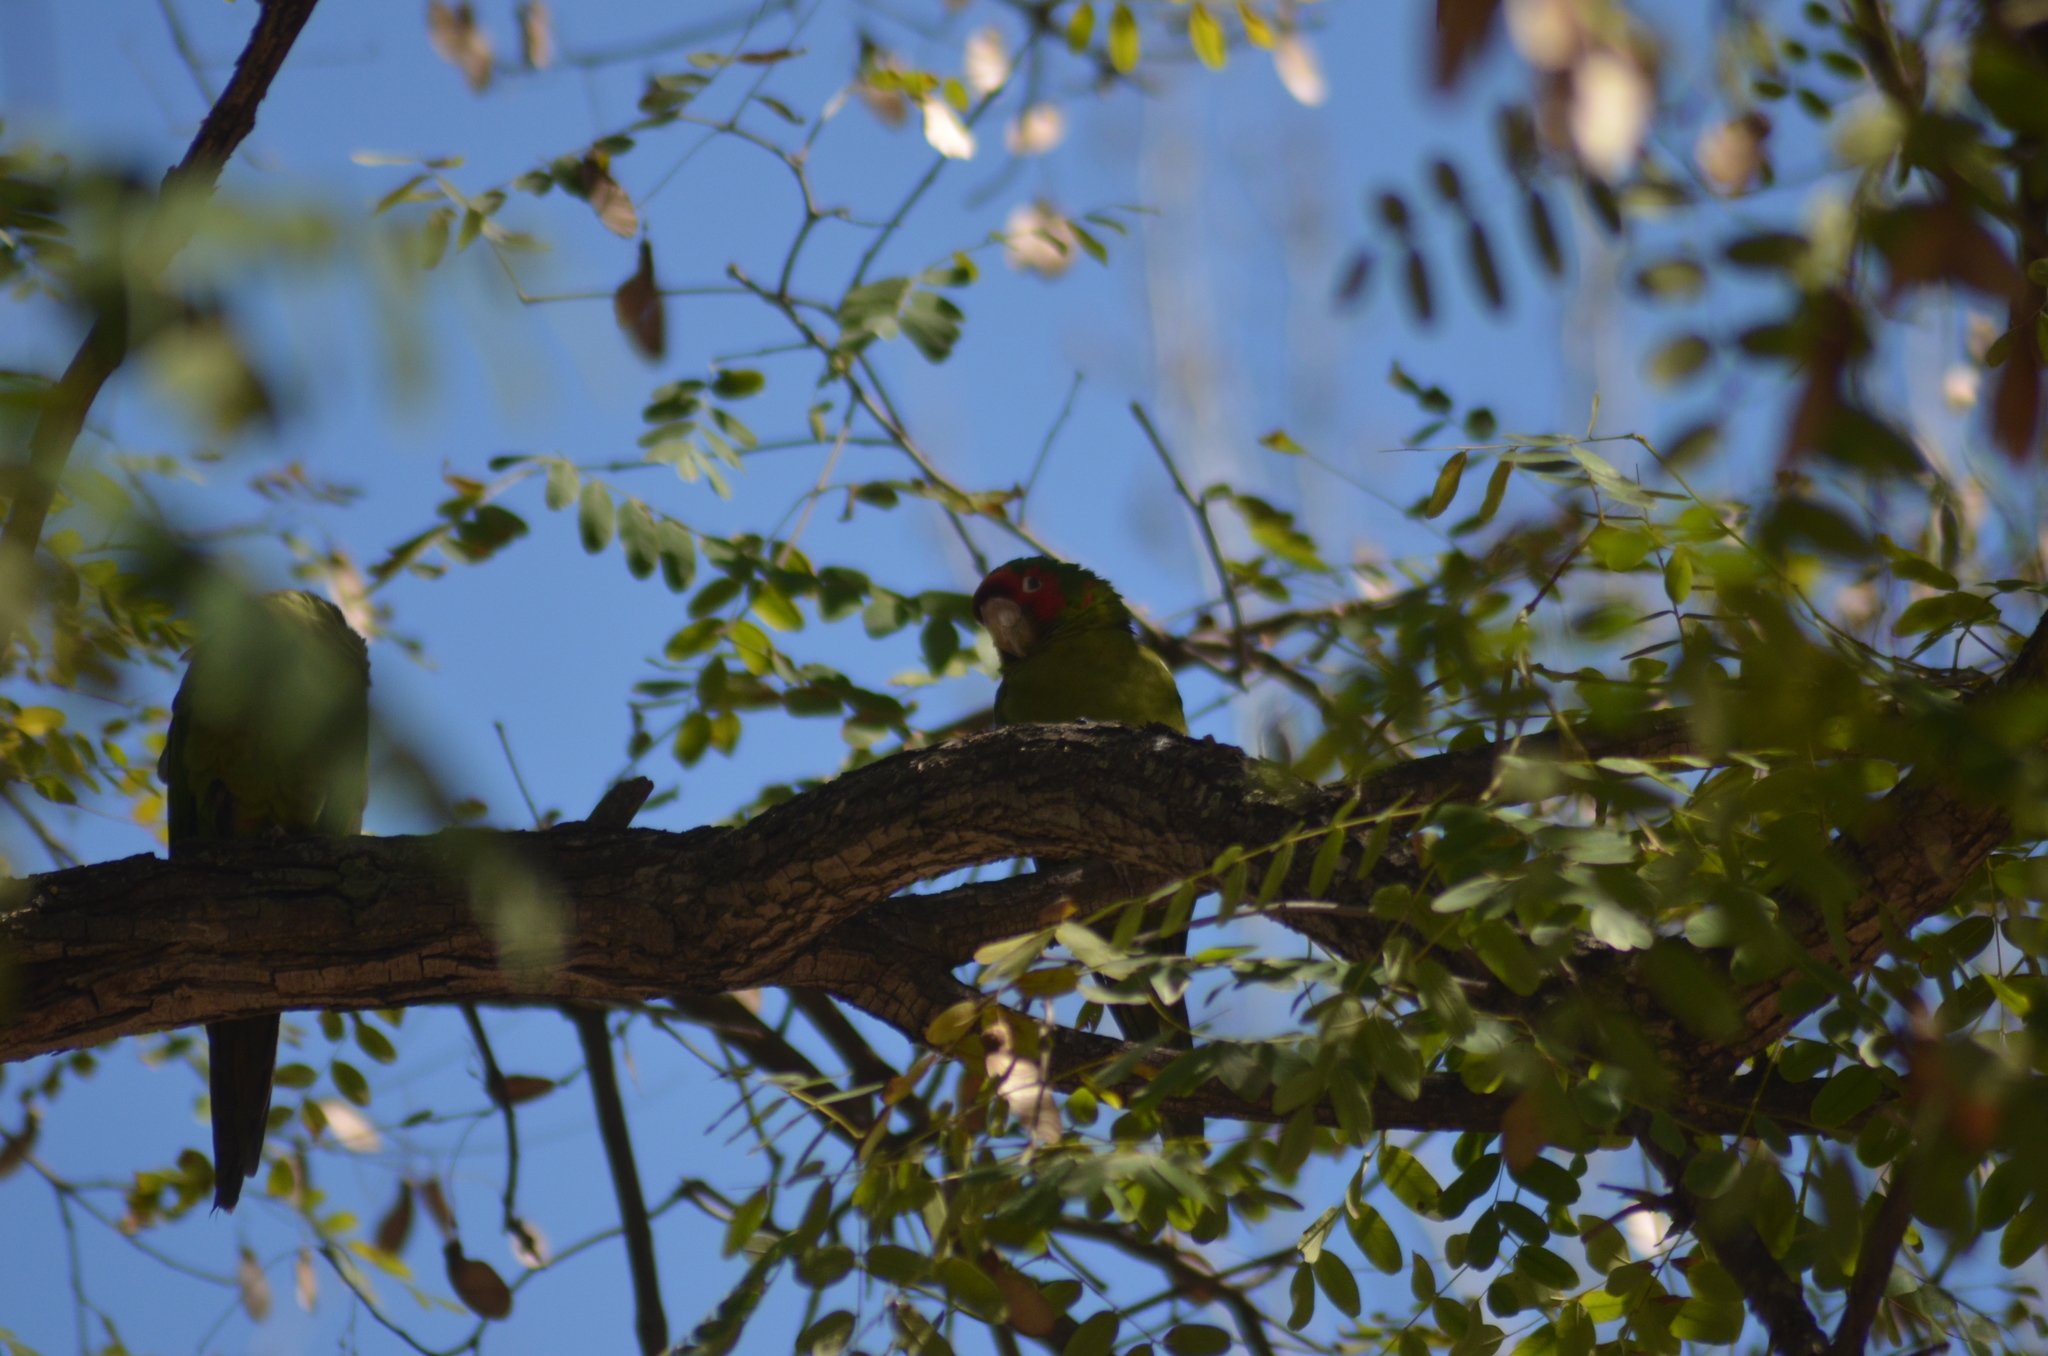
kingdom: Animalia
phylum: Chordata
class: Aves
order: Psittaciformes
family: Psittacidae
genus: Aratinga
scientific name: Aratinga mitrata
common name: Mitred parakeet
